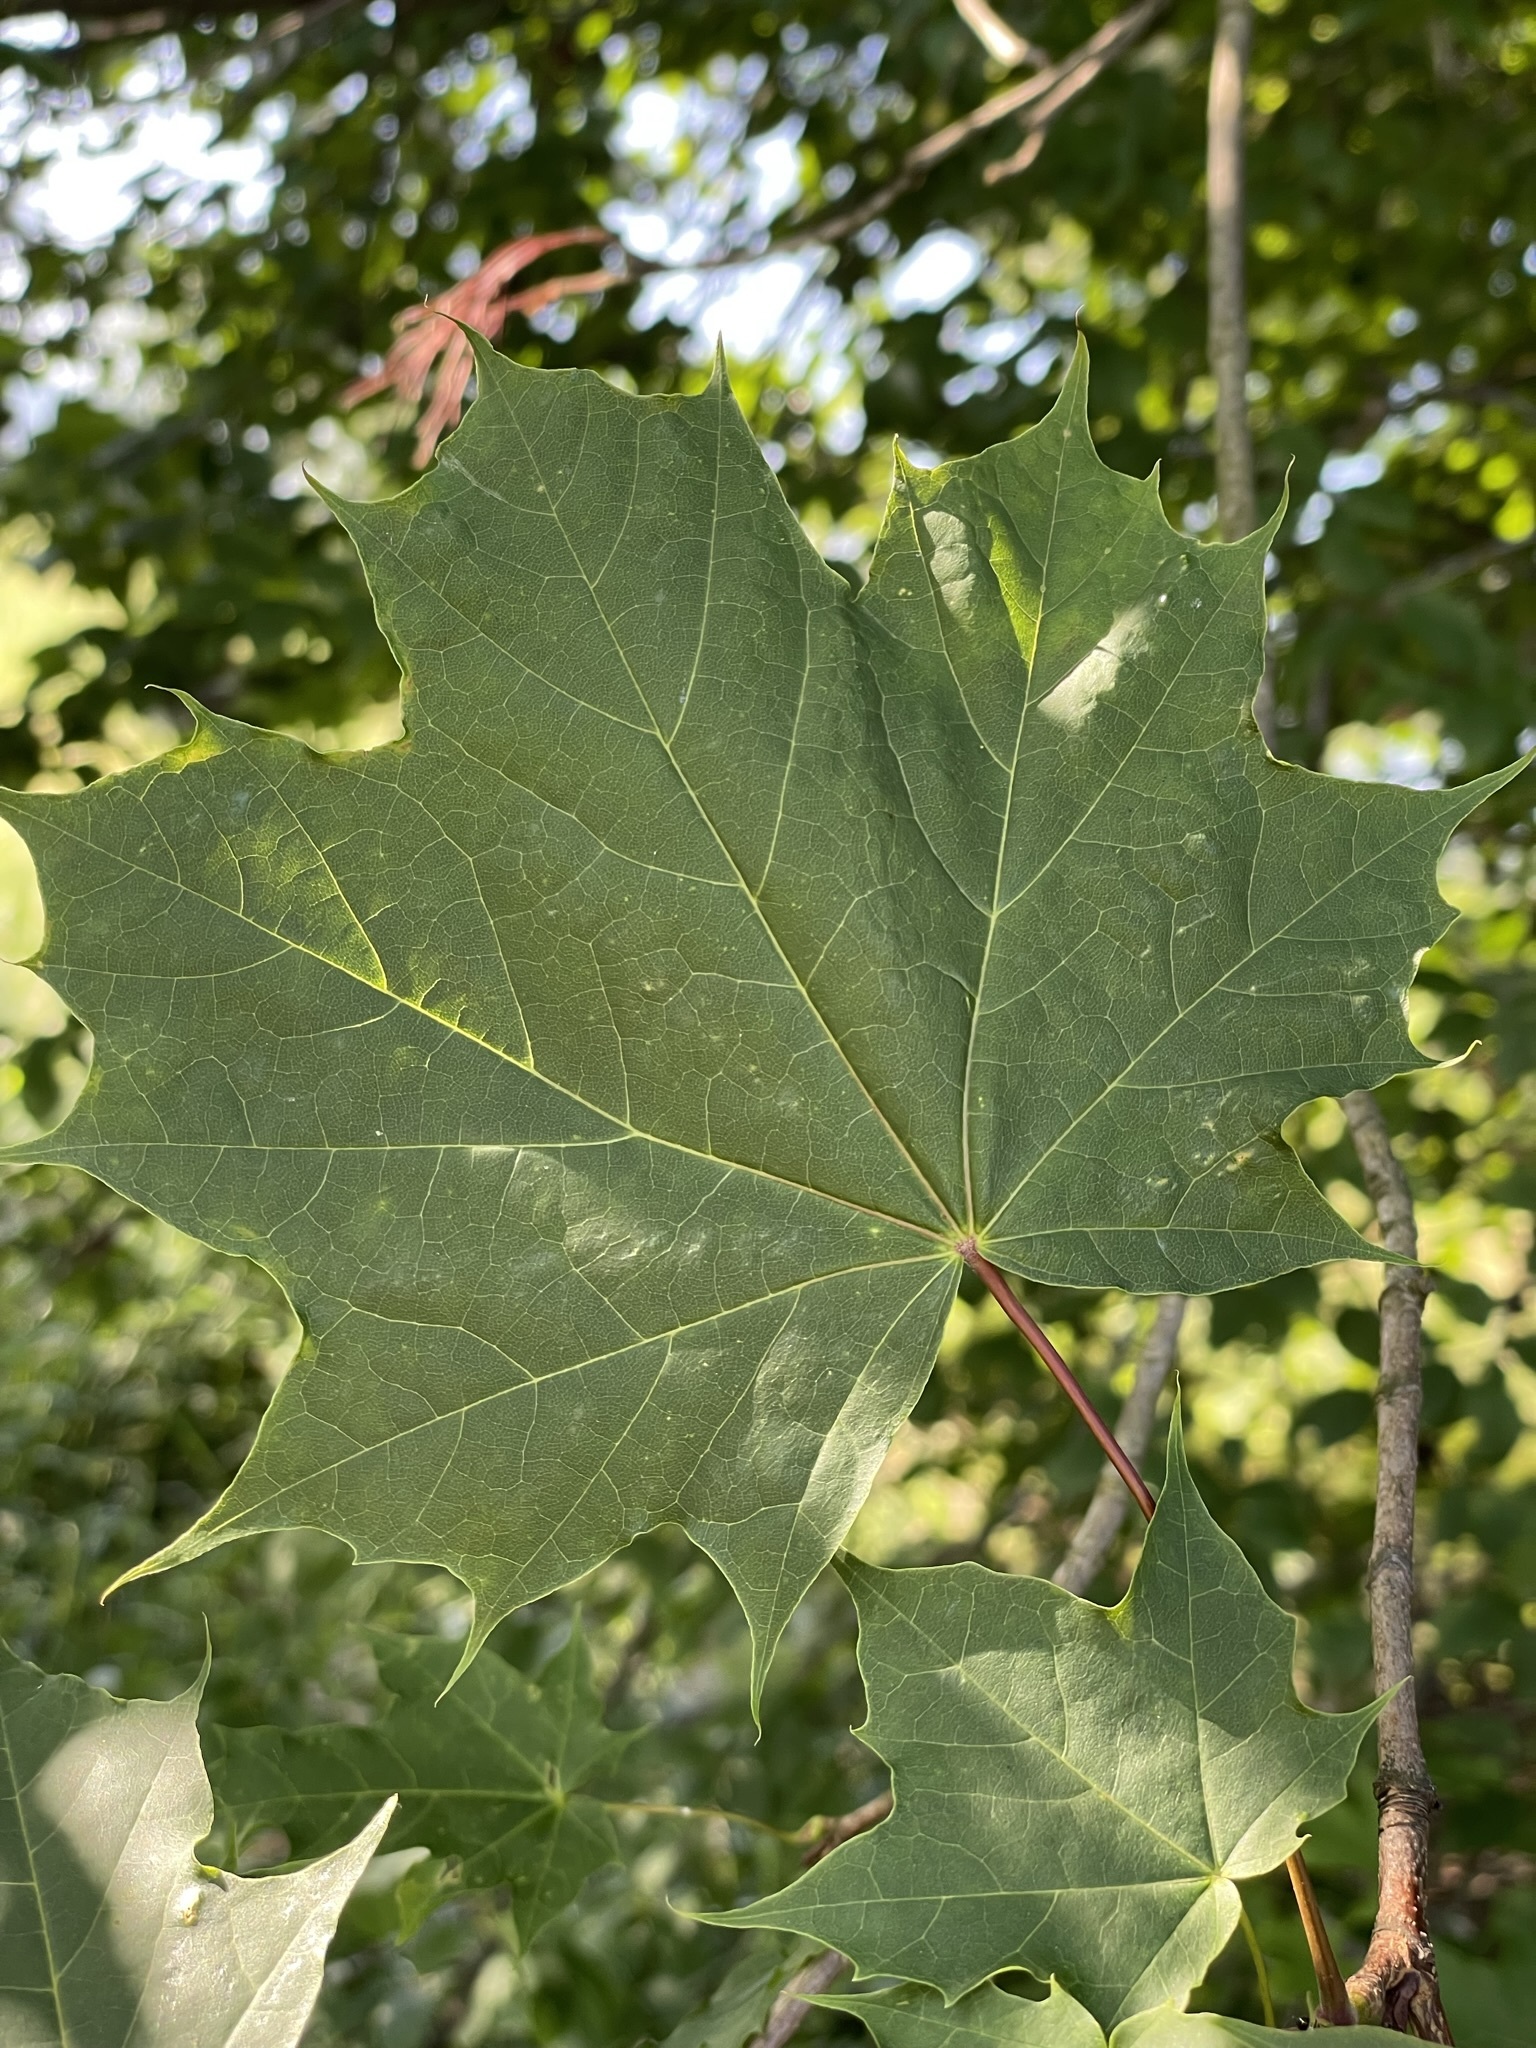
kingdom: Plantae
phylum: Tracheophyta
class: Magnoliopsida
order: Sapindales
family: Sapindaceae
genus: Acer
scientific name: Acer platanoides
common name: Norway maple
